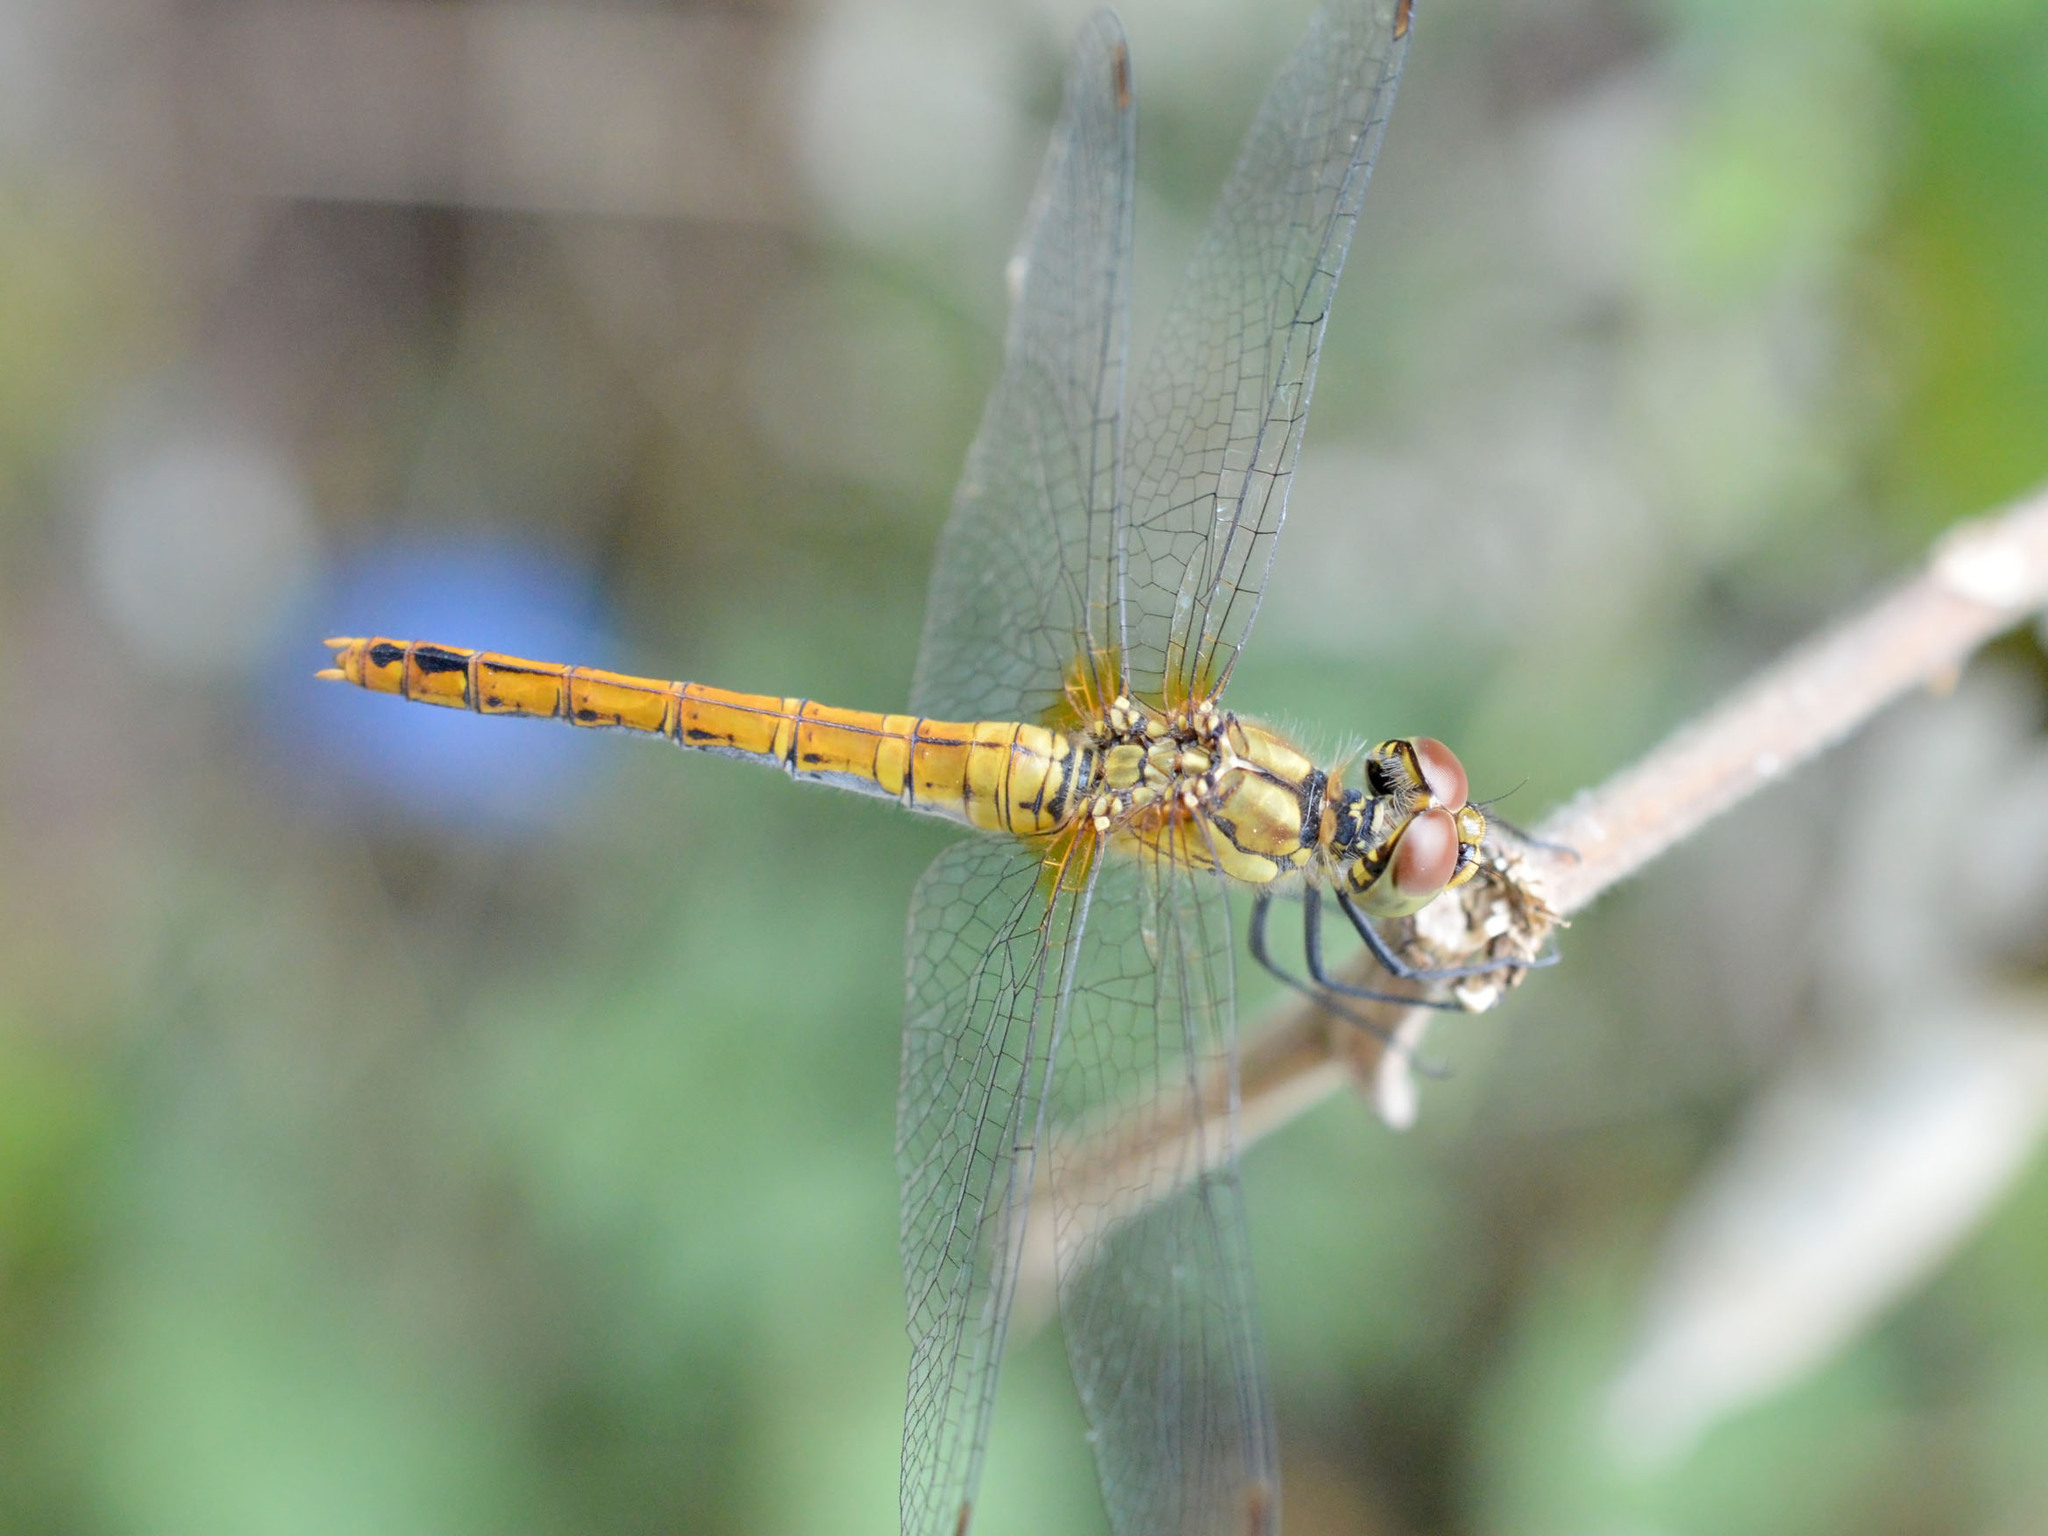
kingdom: Animalia
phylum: Arthropoda
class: Insecta
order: Odonata
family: Libellulidae
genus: Sympetrum
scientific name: Sympetrum sanguineum
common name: Ruddy darter
